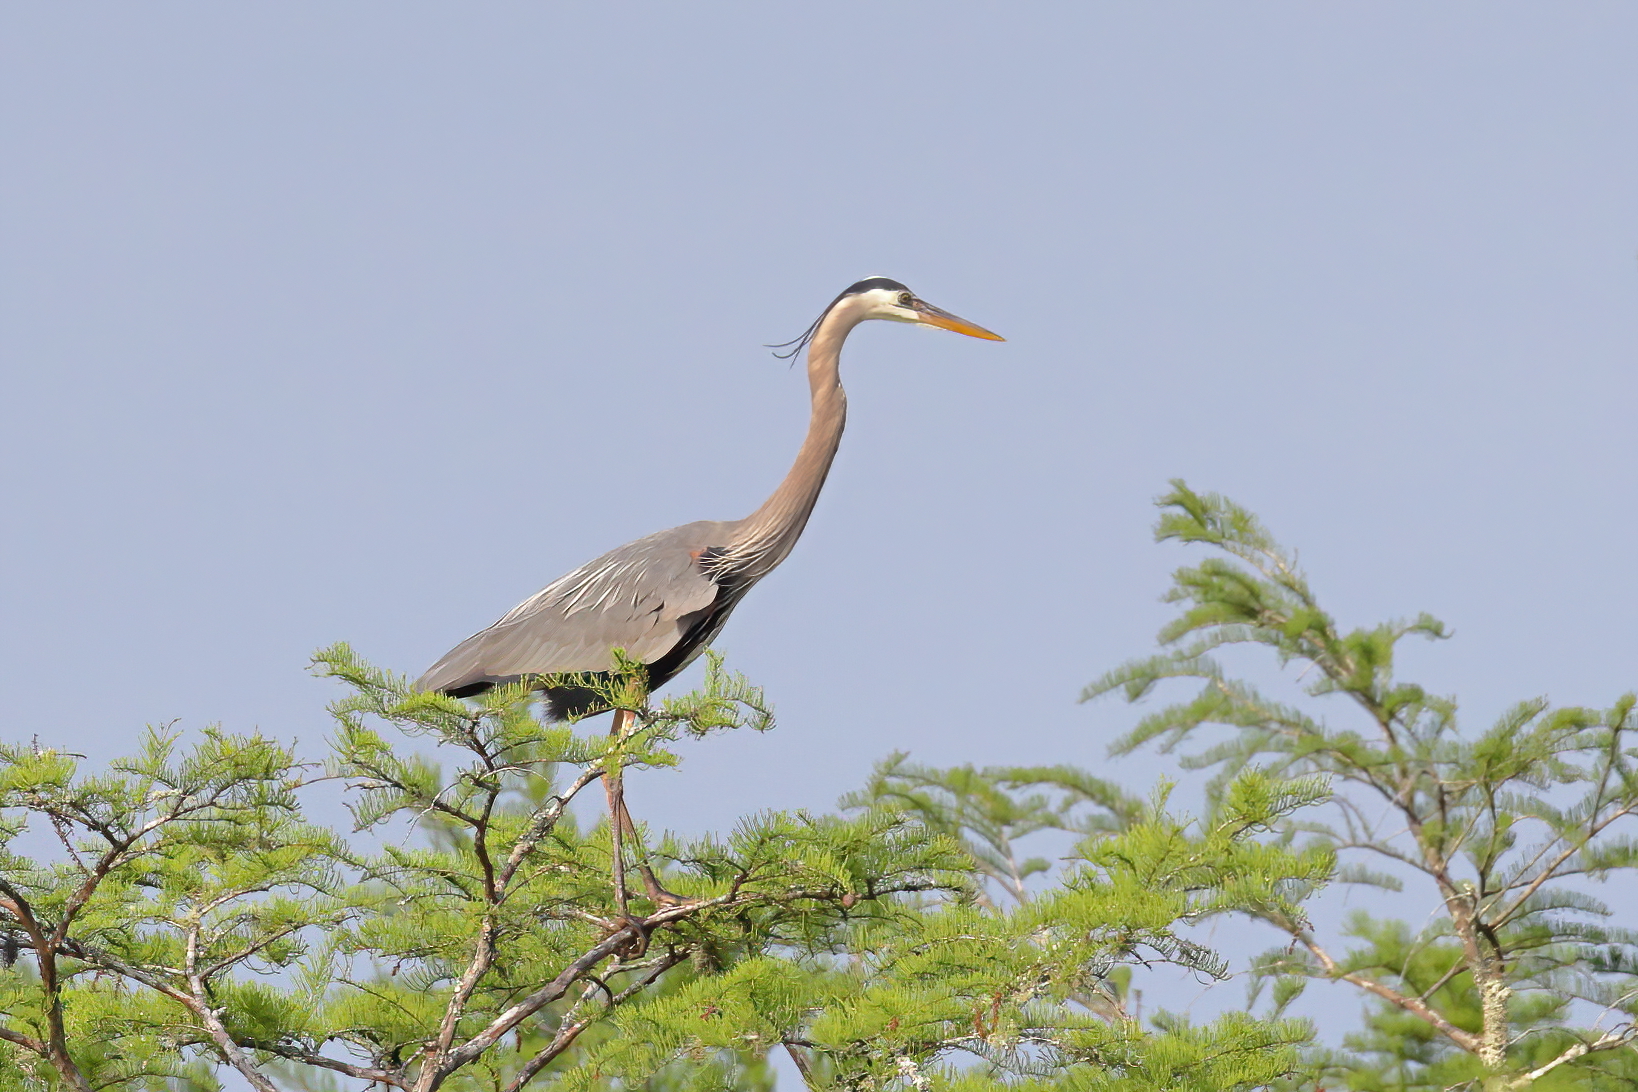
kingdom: Animalia
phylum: Chordata
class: Aves
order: Pelecaniformes
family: Ardeidae
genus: Ardea
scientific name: Ardea herodias
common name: Great blue heron
